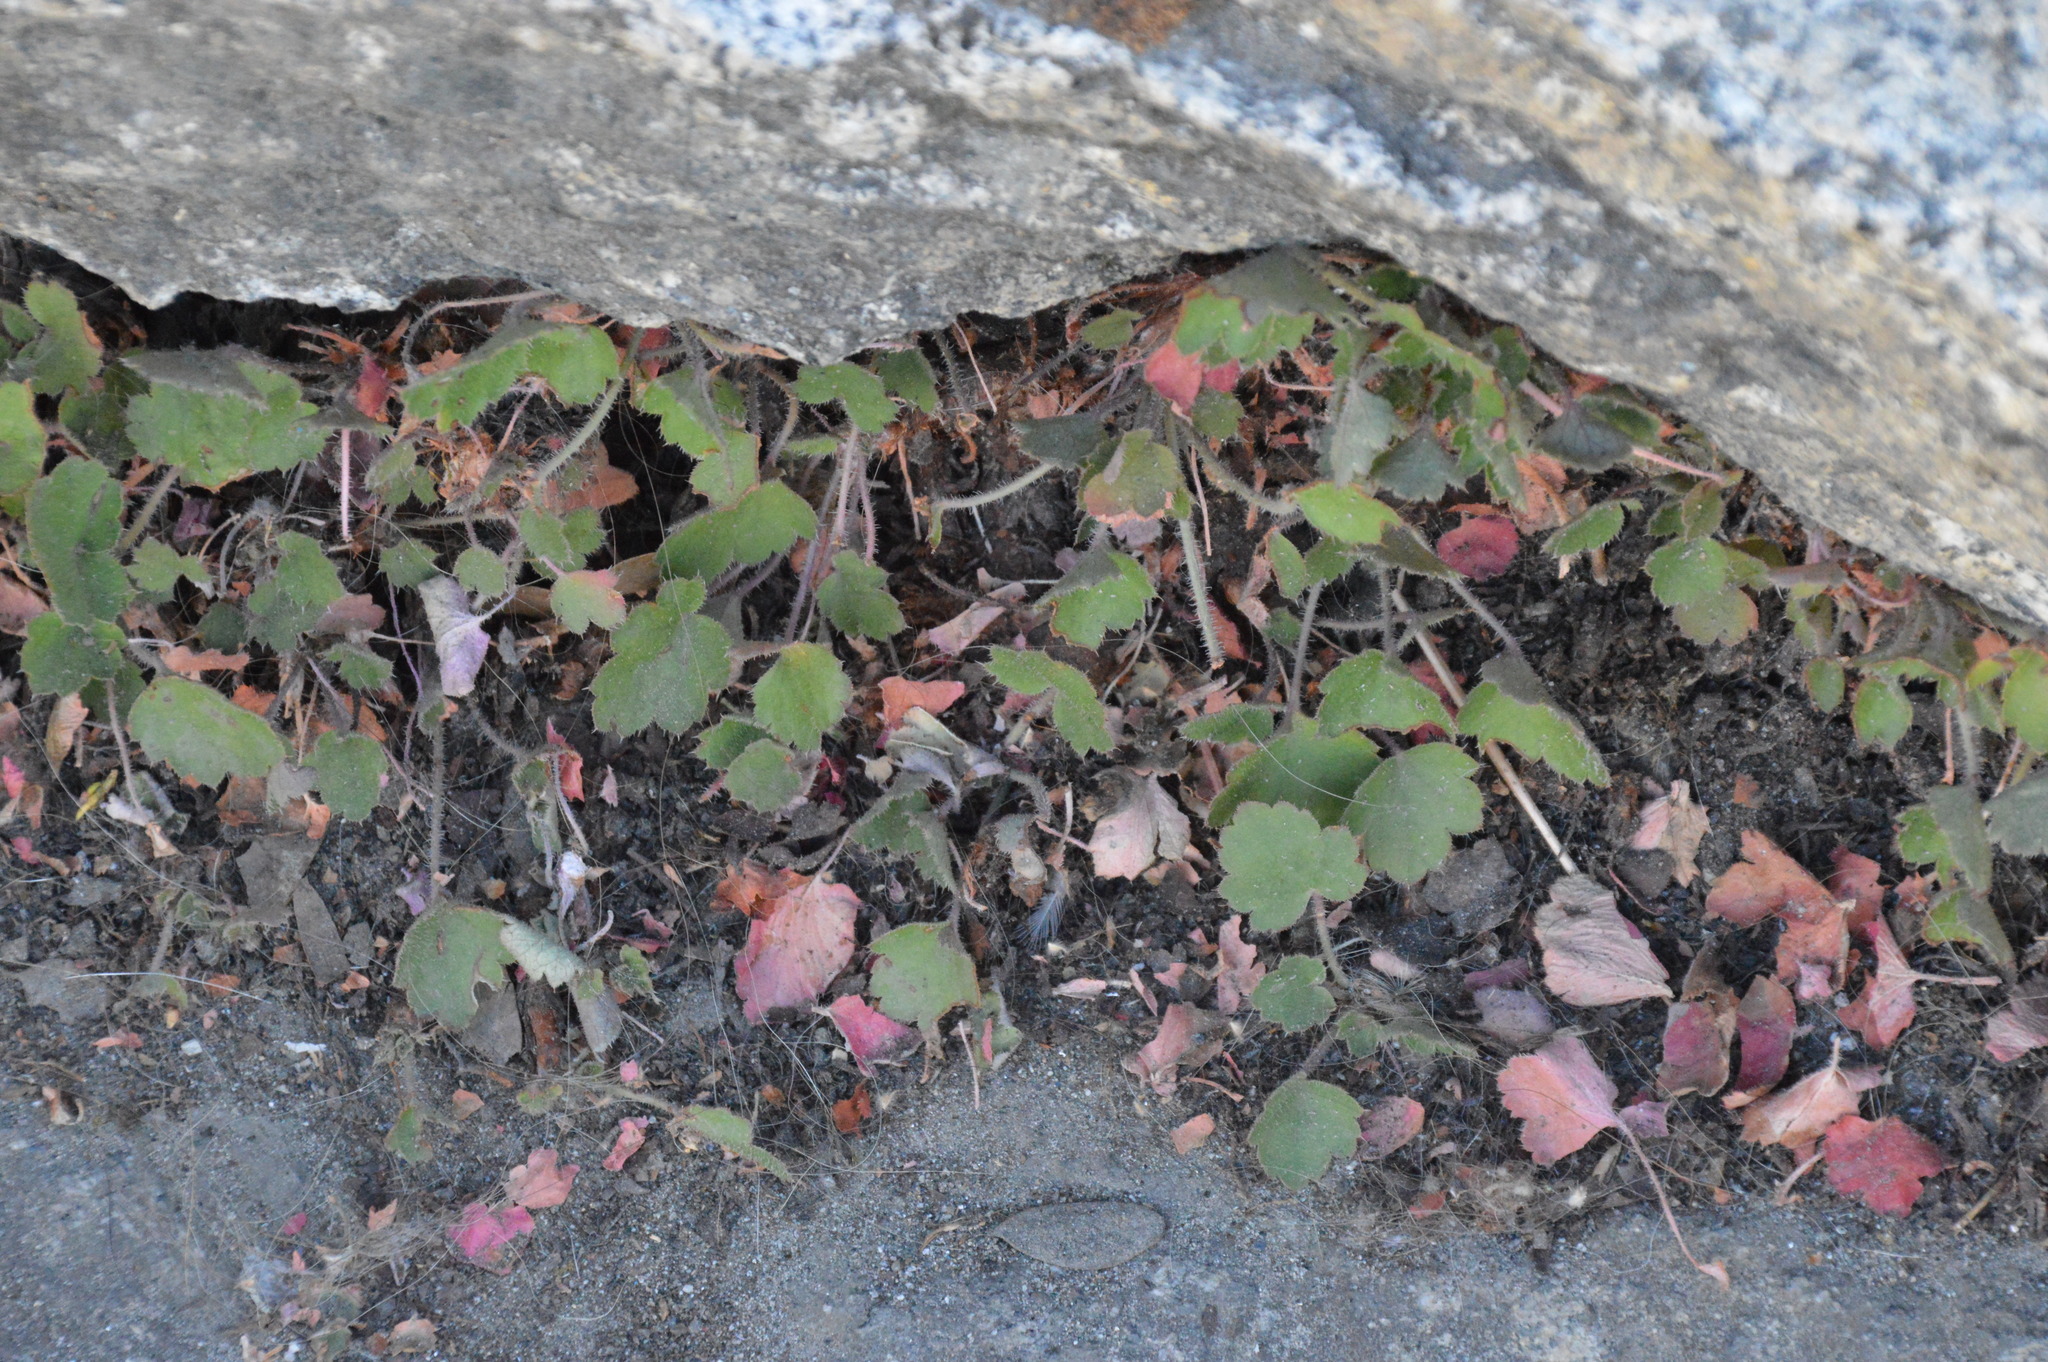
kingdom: Plantae
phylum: Tracheophyta
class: Magnoliopsida
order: Saxifragales
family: Saxifragaceae
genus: Heuchera
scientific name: Heuchera rubescens
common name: Jack-o'the-rocks
